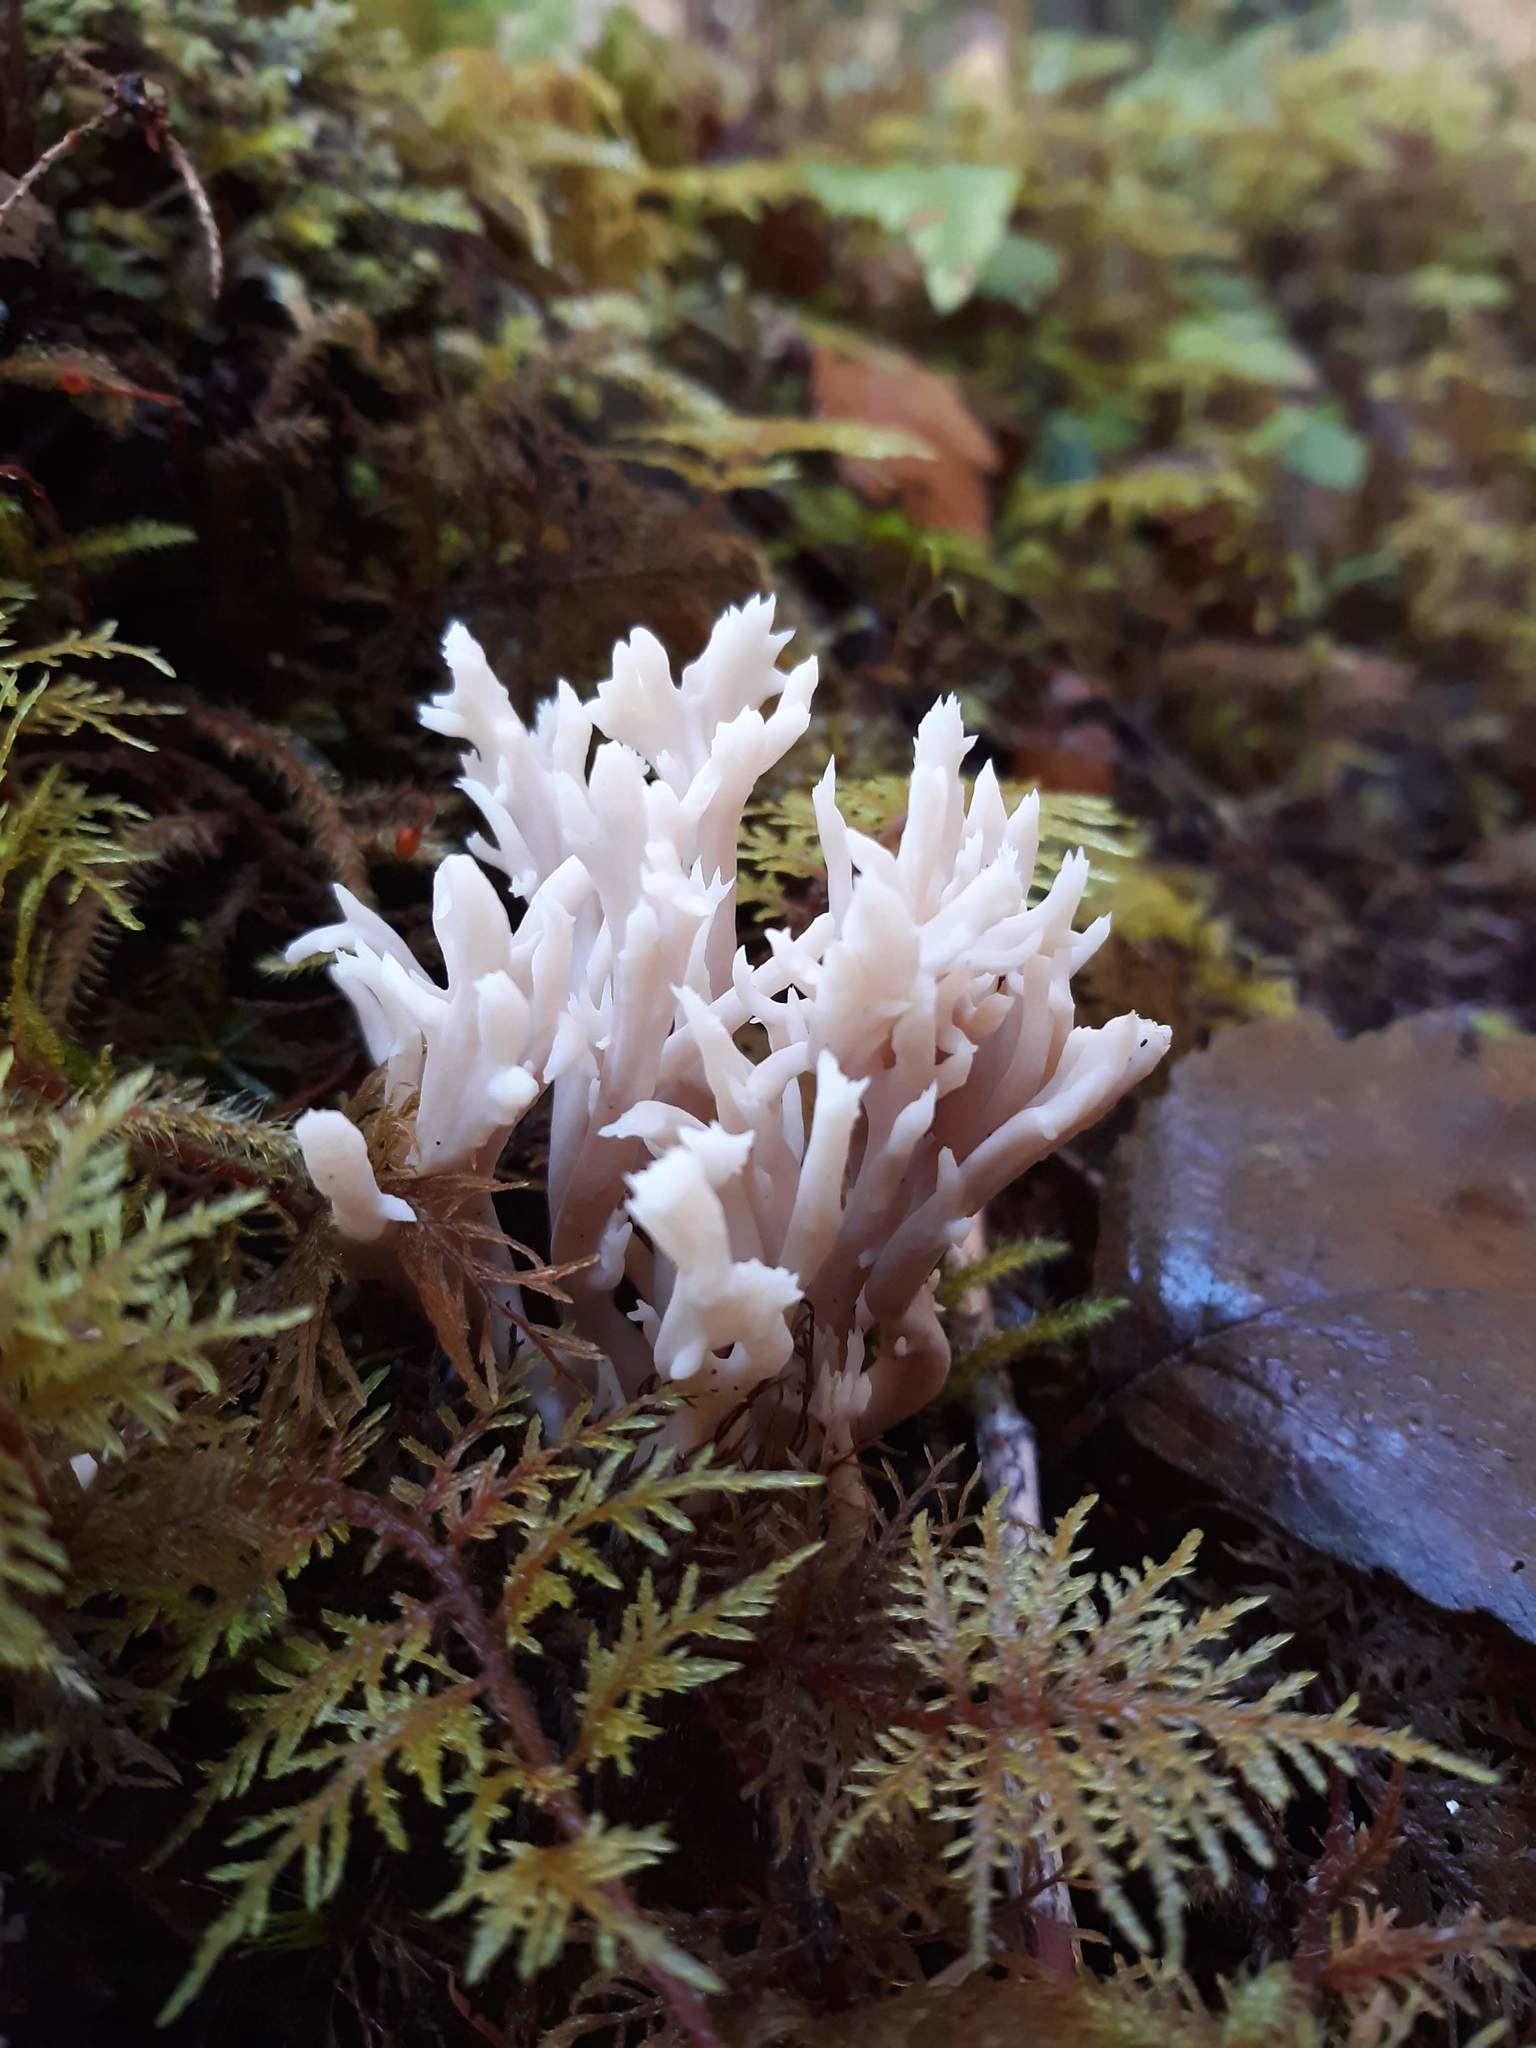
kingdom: Fungi
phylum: Basidiomycota
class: Agaricomycetes
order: Cantharellales
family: Hydnaceae
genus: Clavulina
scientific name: Clavulina coralloides
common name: Crested coral
